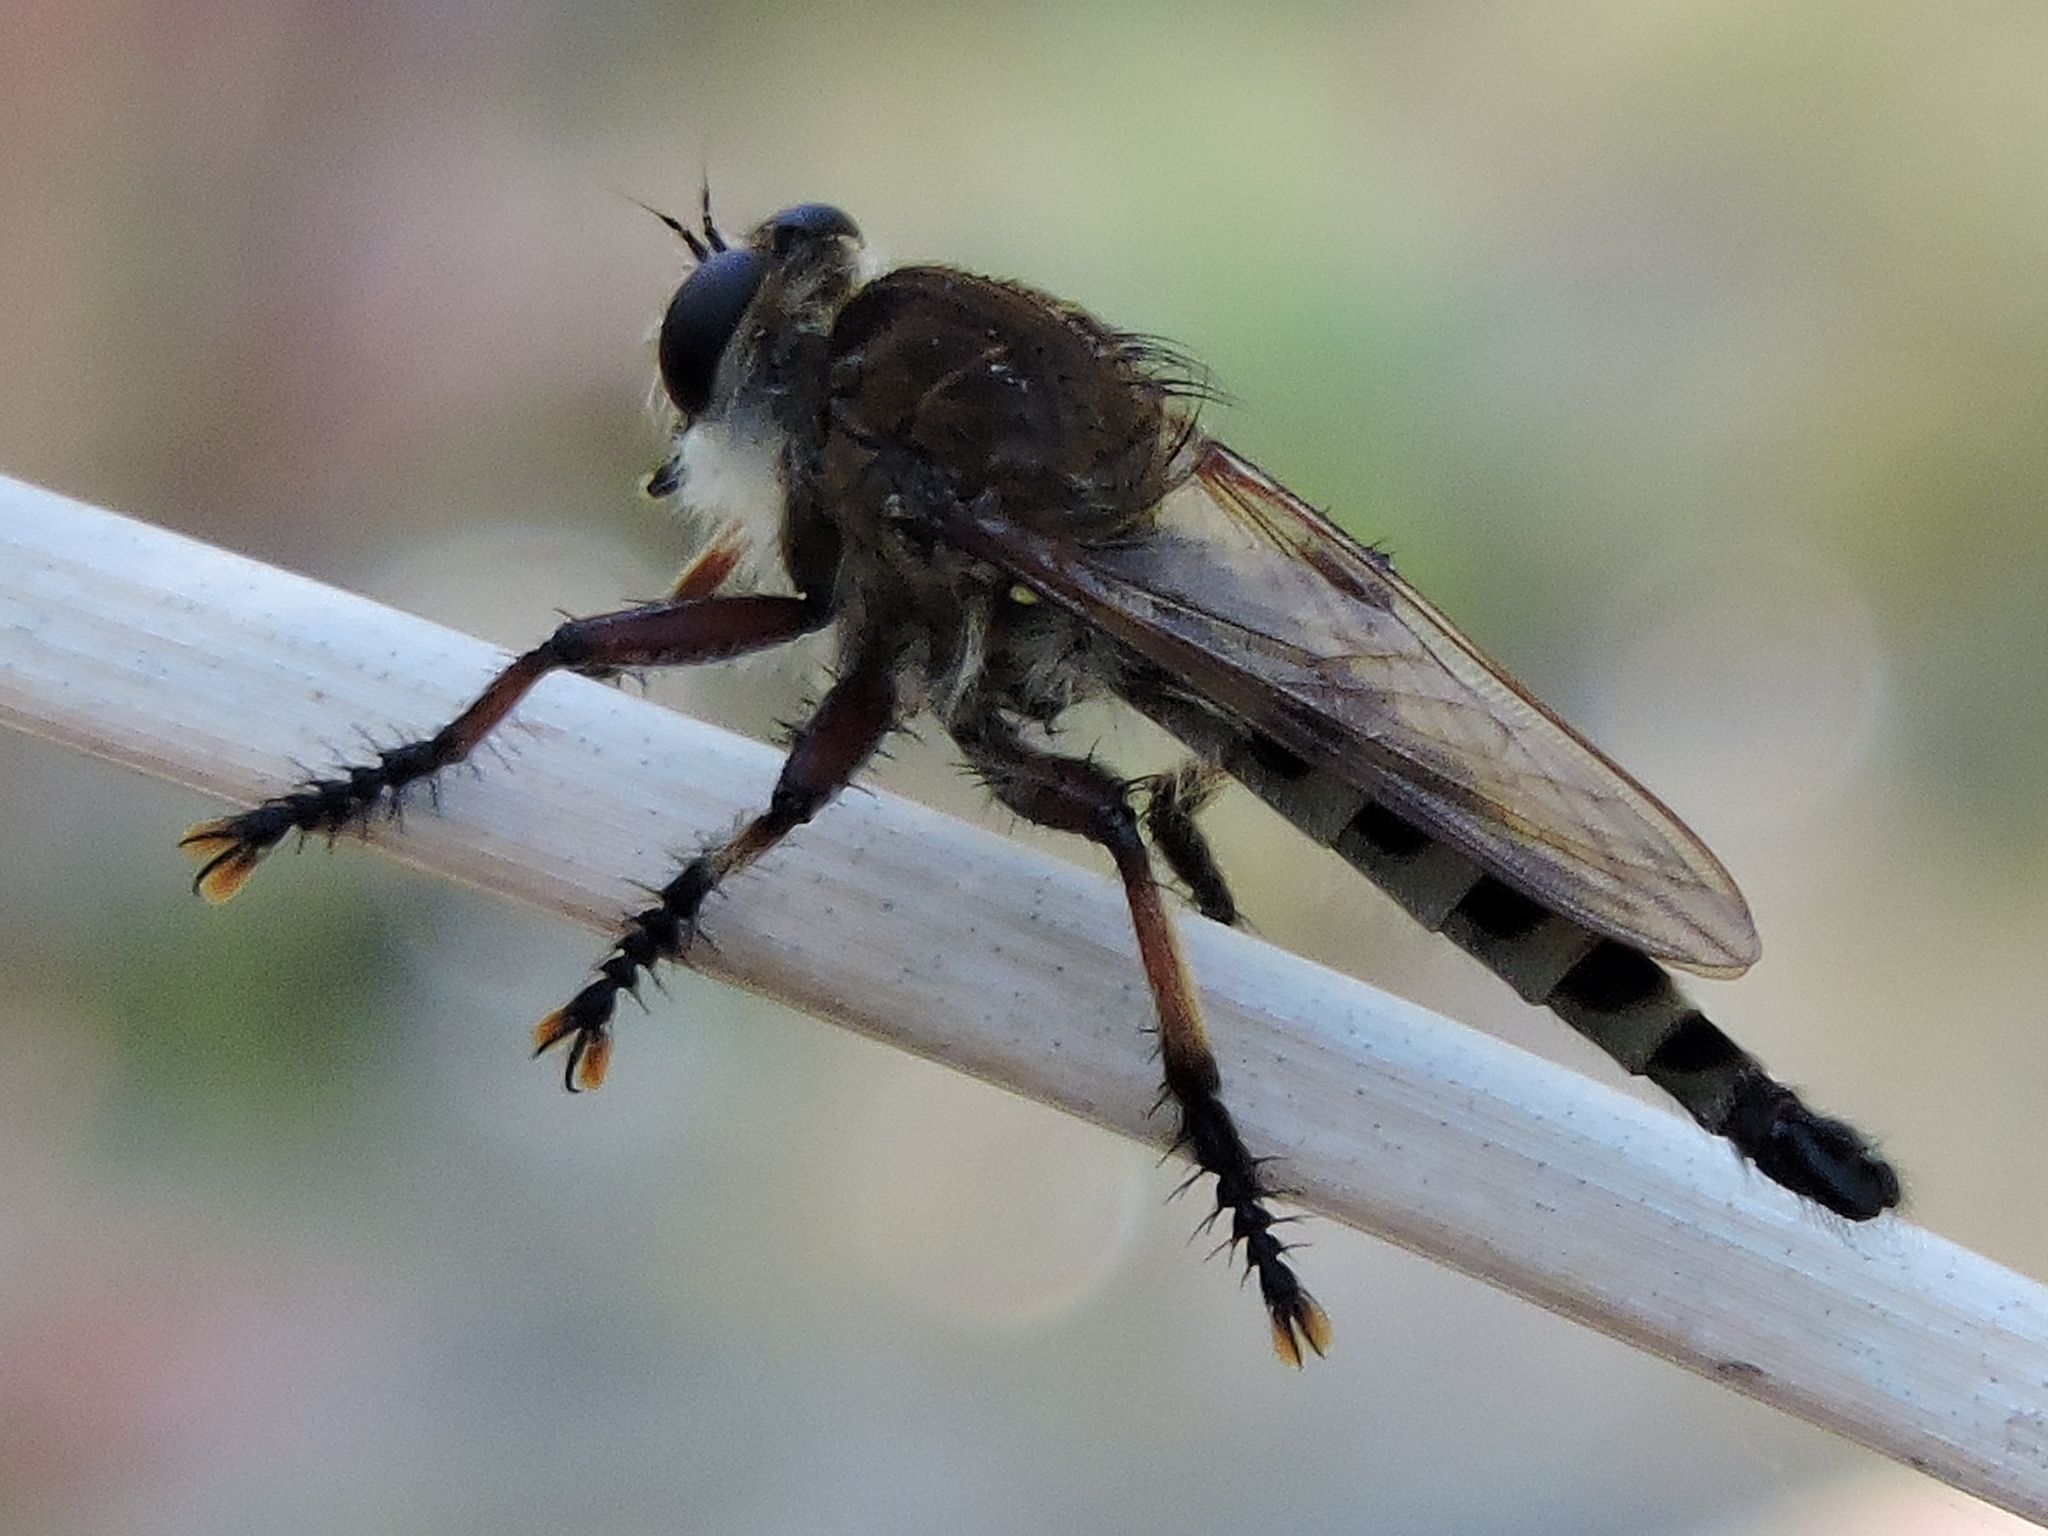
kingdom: Animalia
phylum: Arthropoda
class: Insecta
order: Diptera
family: Asilidae
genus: Promachus
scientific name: Promachus hinei
